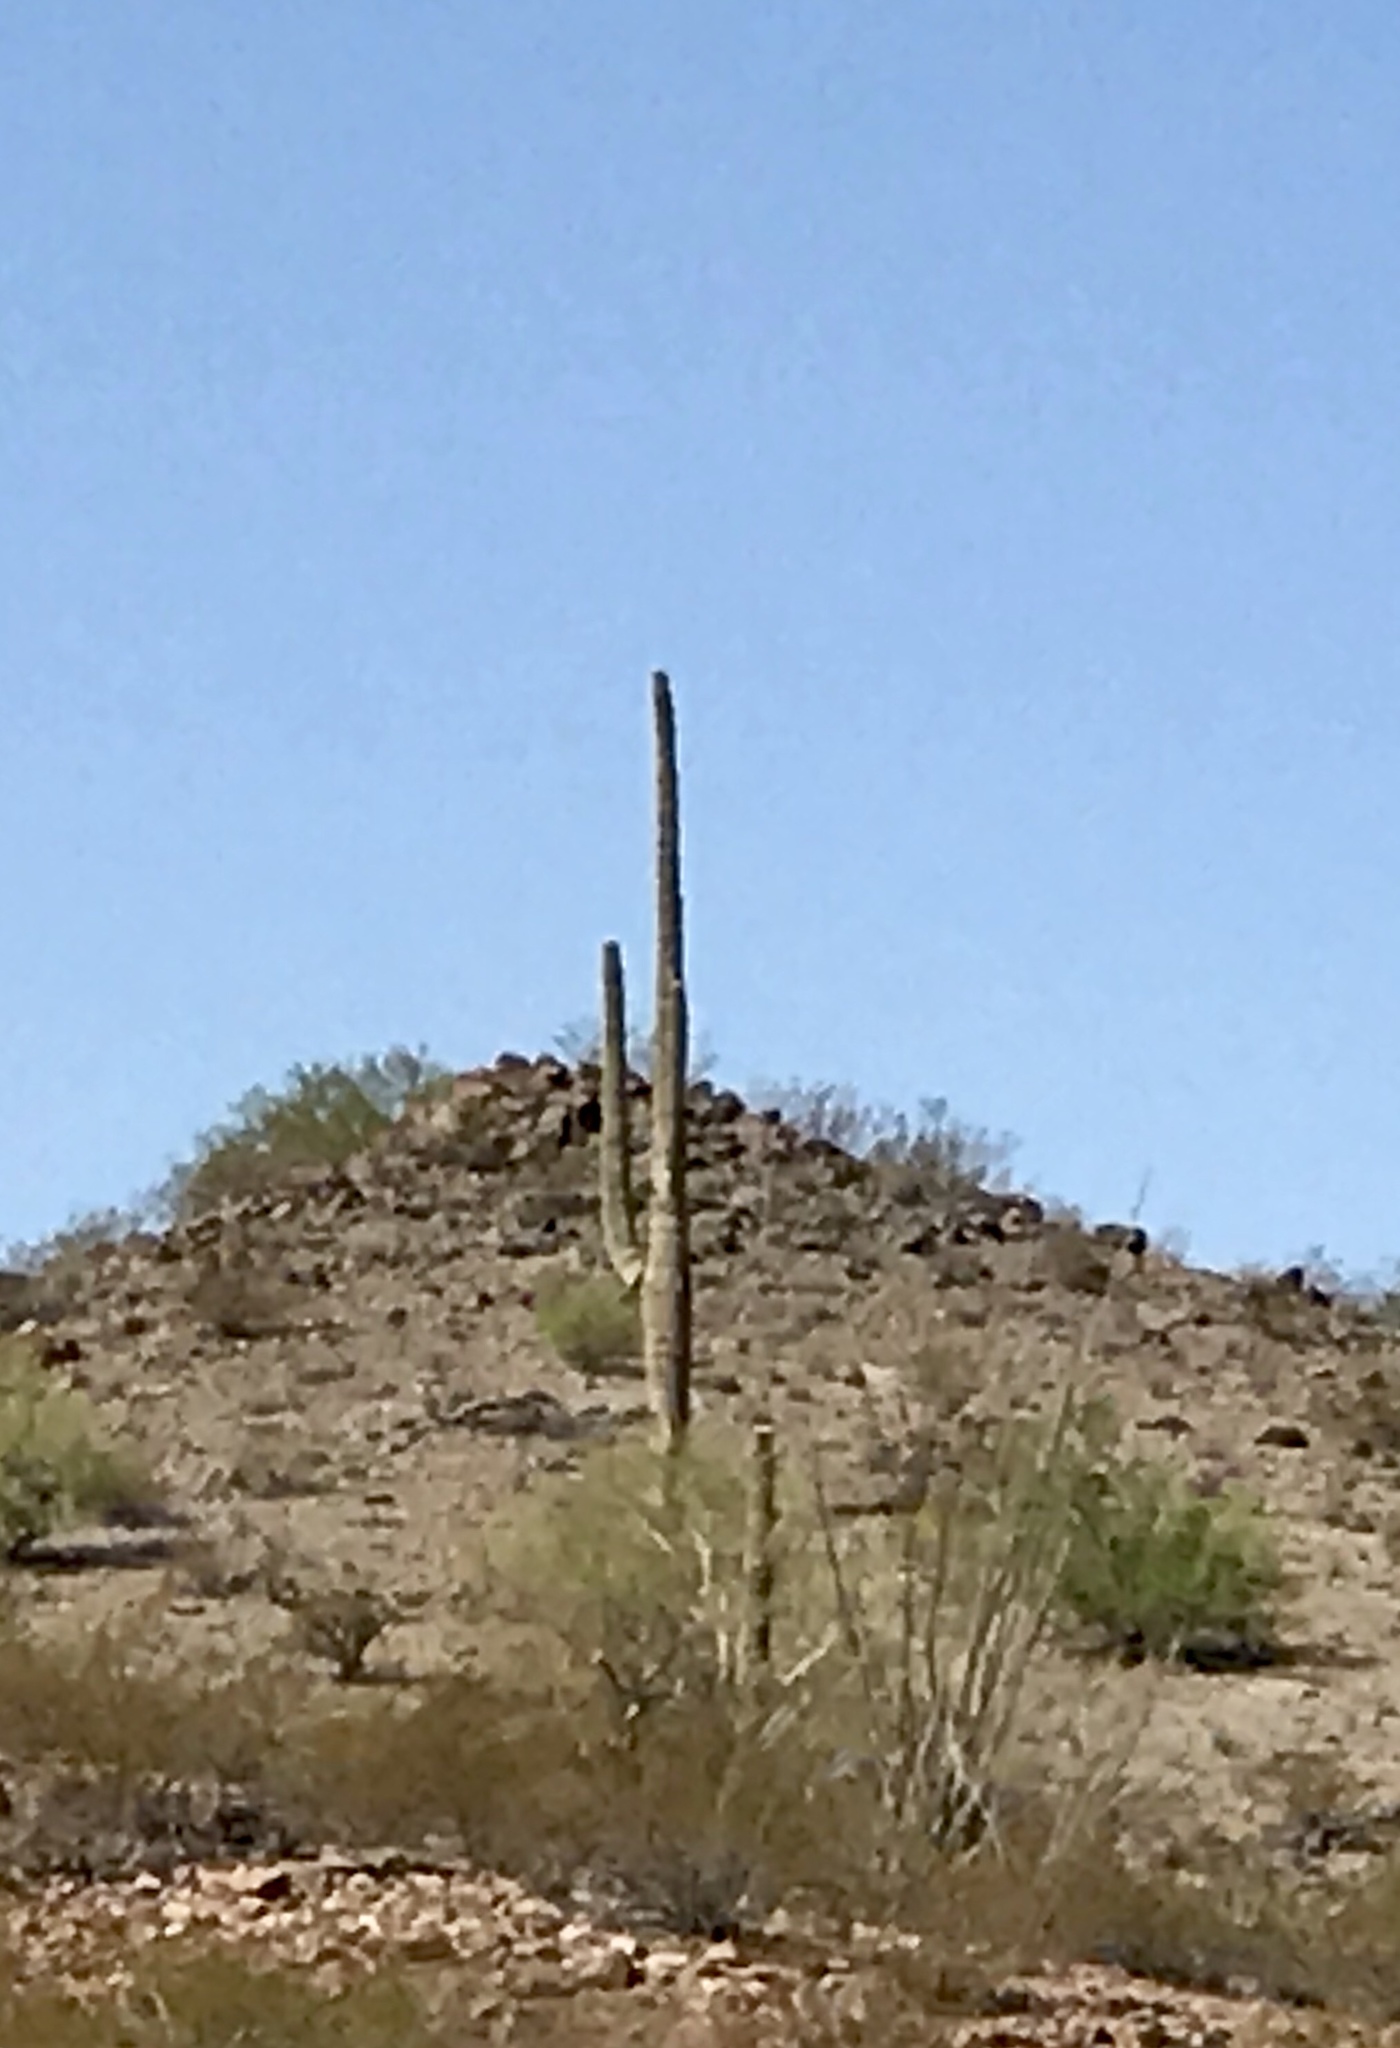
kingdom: Plantae
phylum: Tracheophyta
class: Magnoliopsida
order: Caryophyllales
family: Cactaceae
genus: Carnegiea
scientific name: Carnegiea gigantea
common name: Saguaro
